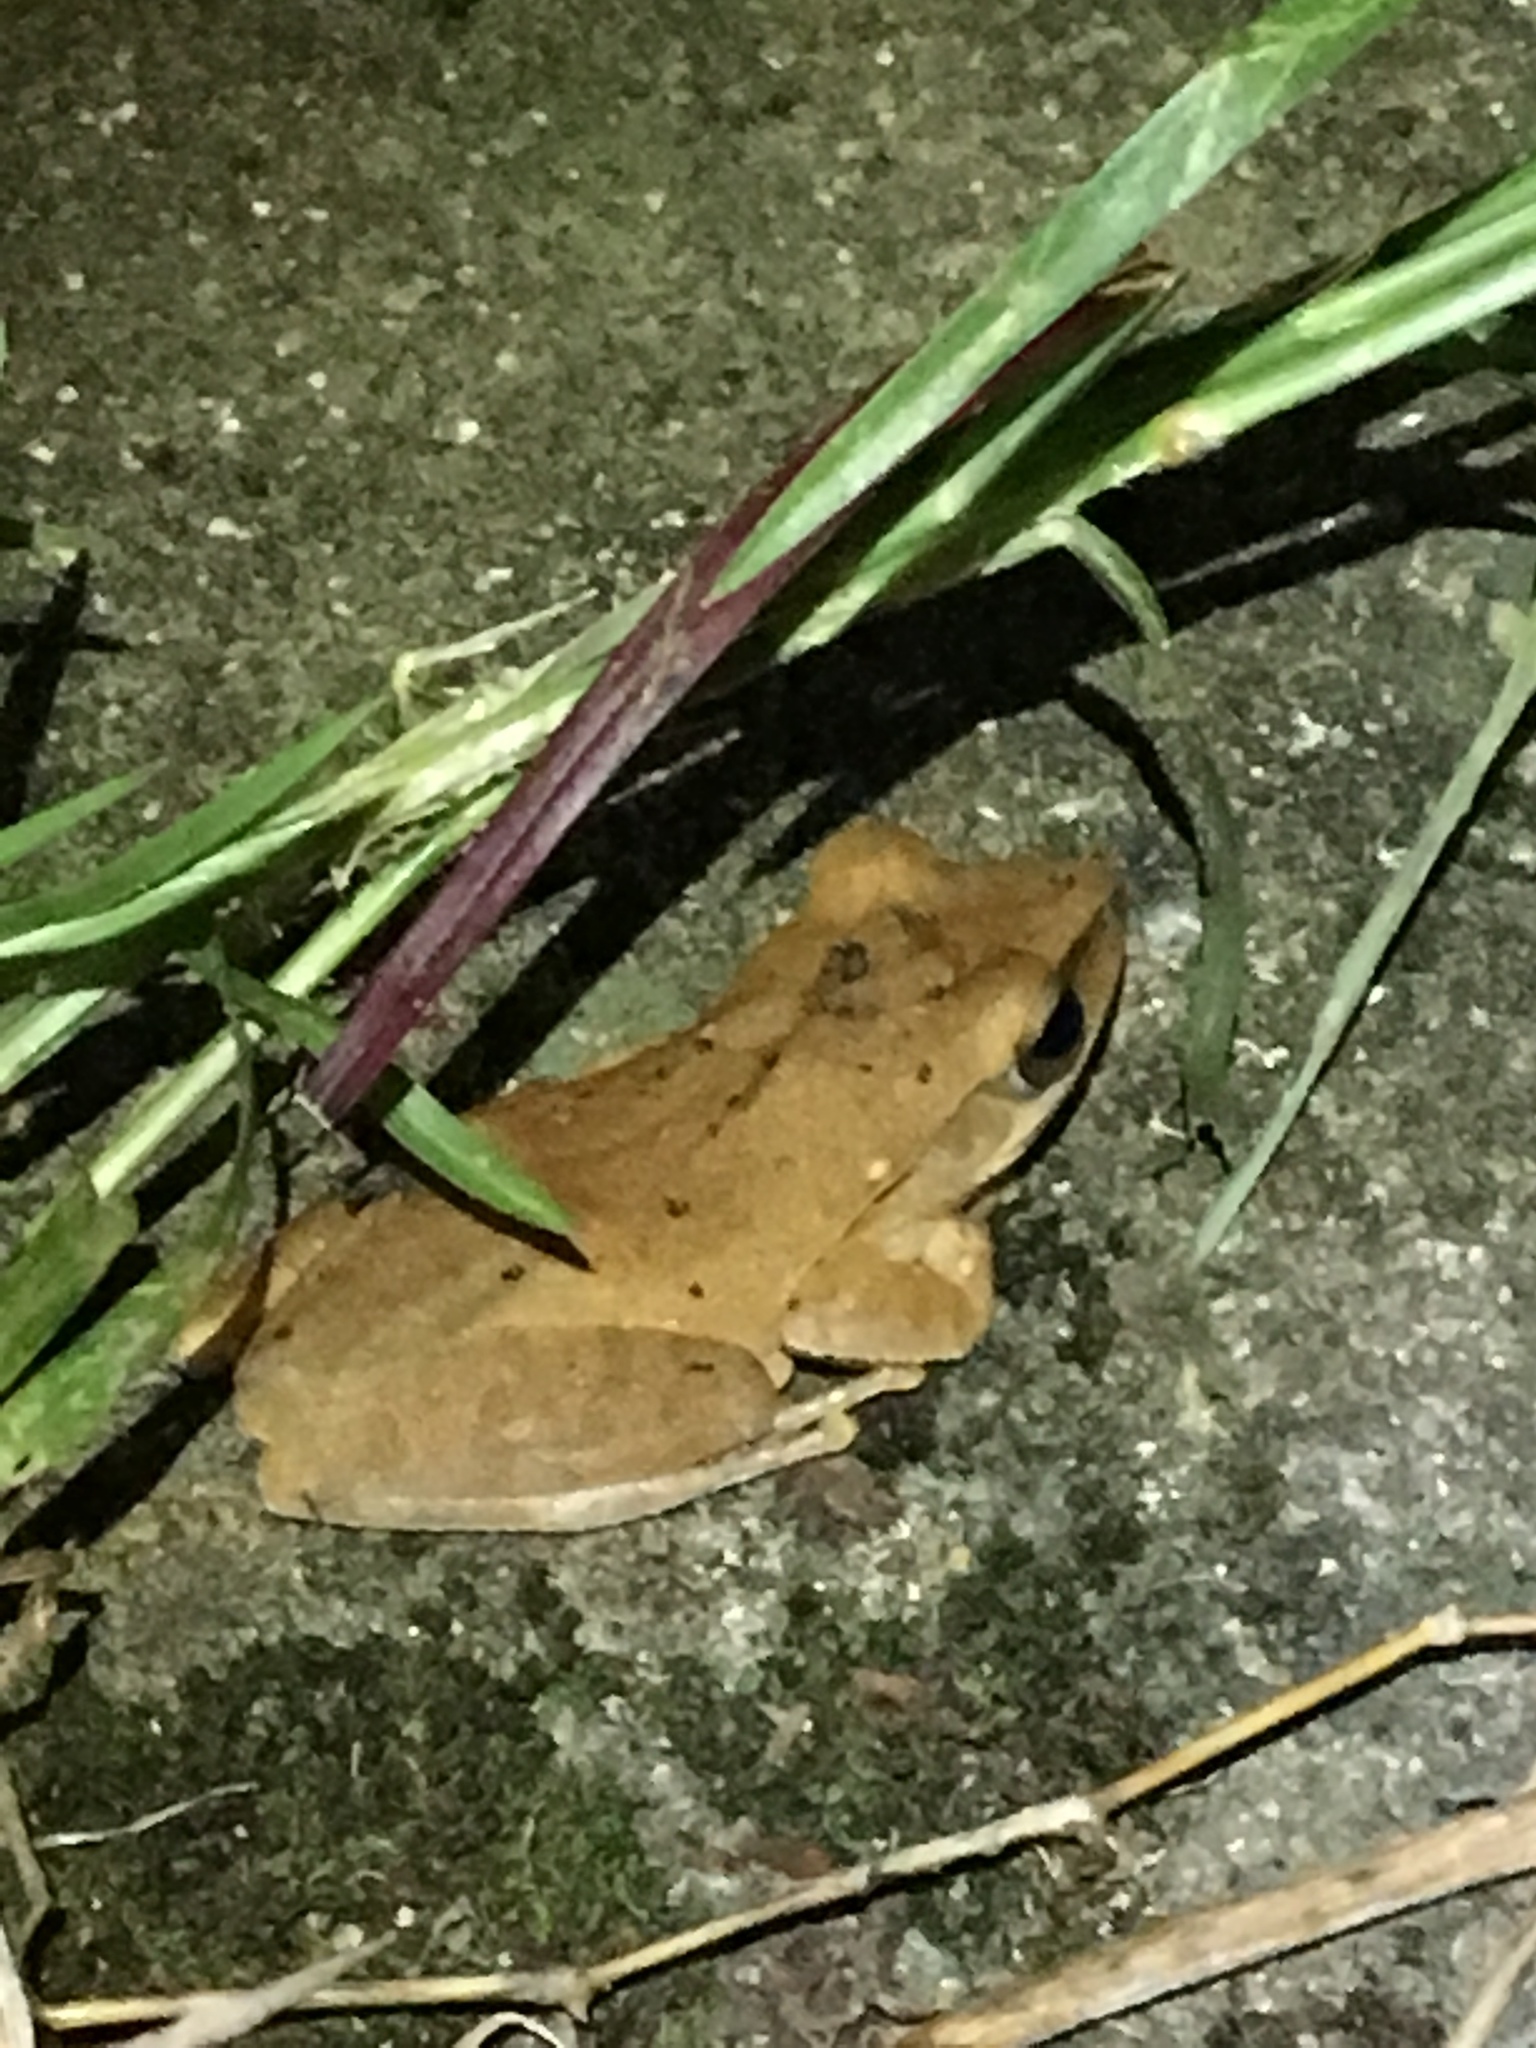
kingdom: Animalia
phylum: Chordata
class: Amphibia
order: Anura
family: Rhacophoridae
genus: Polypedates
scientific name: Polypedates megacephalus
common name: Hong kong whipping frog
